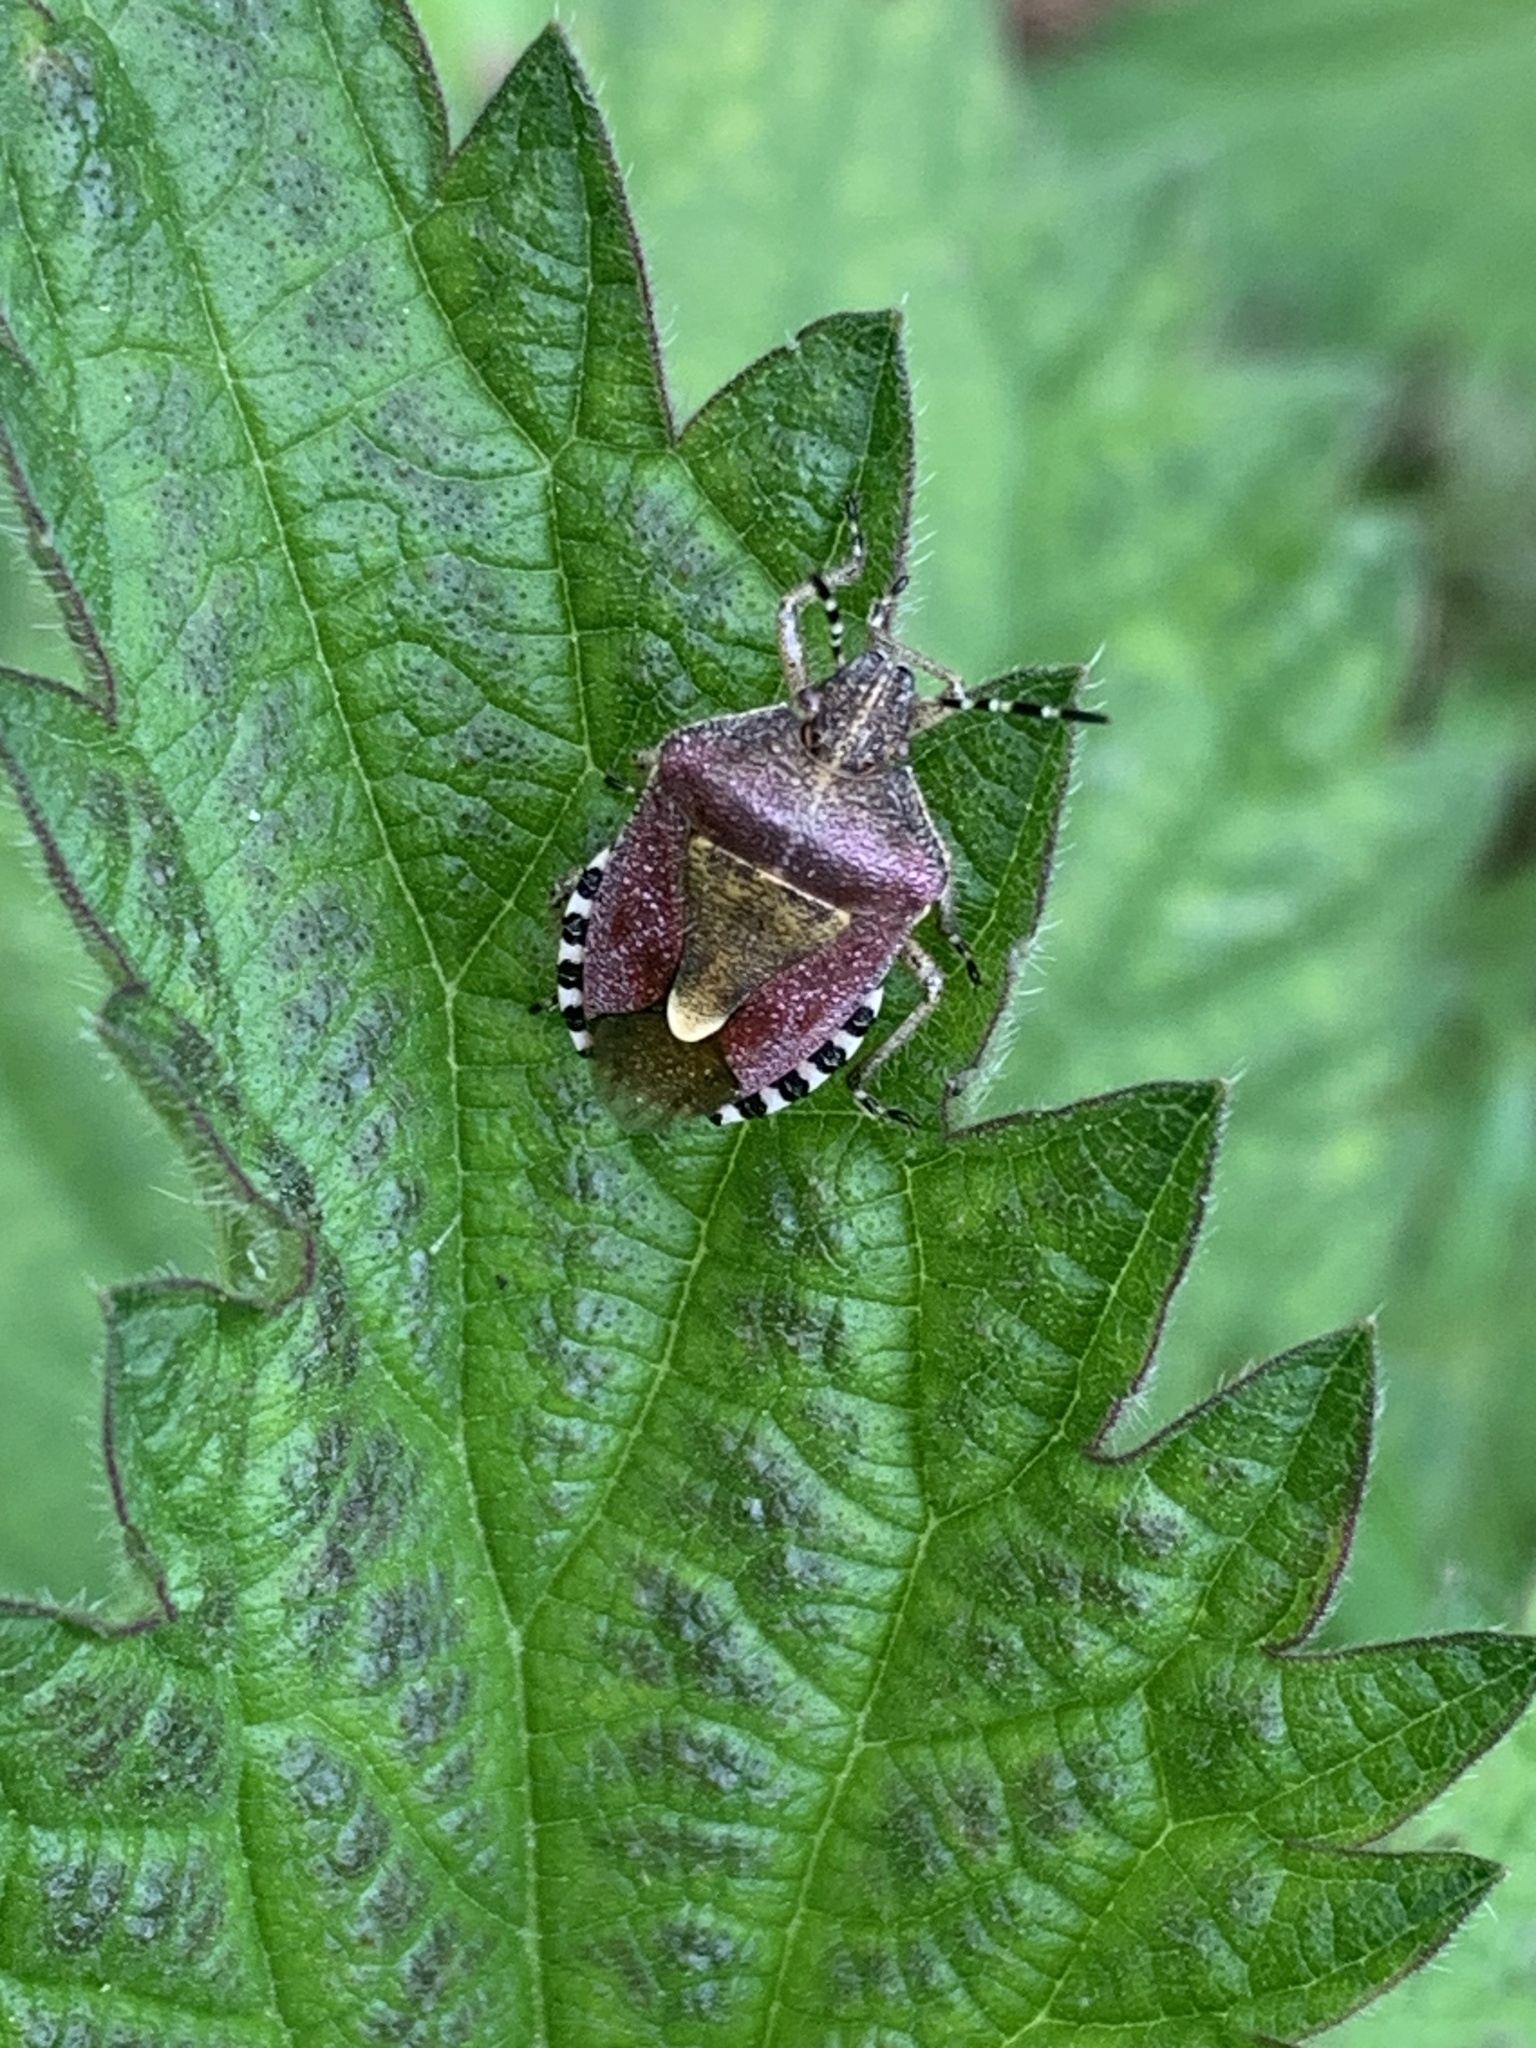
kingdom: Animalia
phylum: Arthropoda
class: Insecta
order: Hemiptera
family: Pentatomidae
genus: Dolycoris
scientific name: Dolycoris baccarum
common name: Sloe bug
